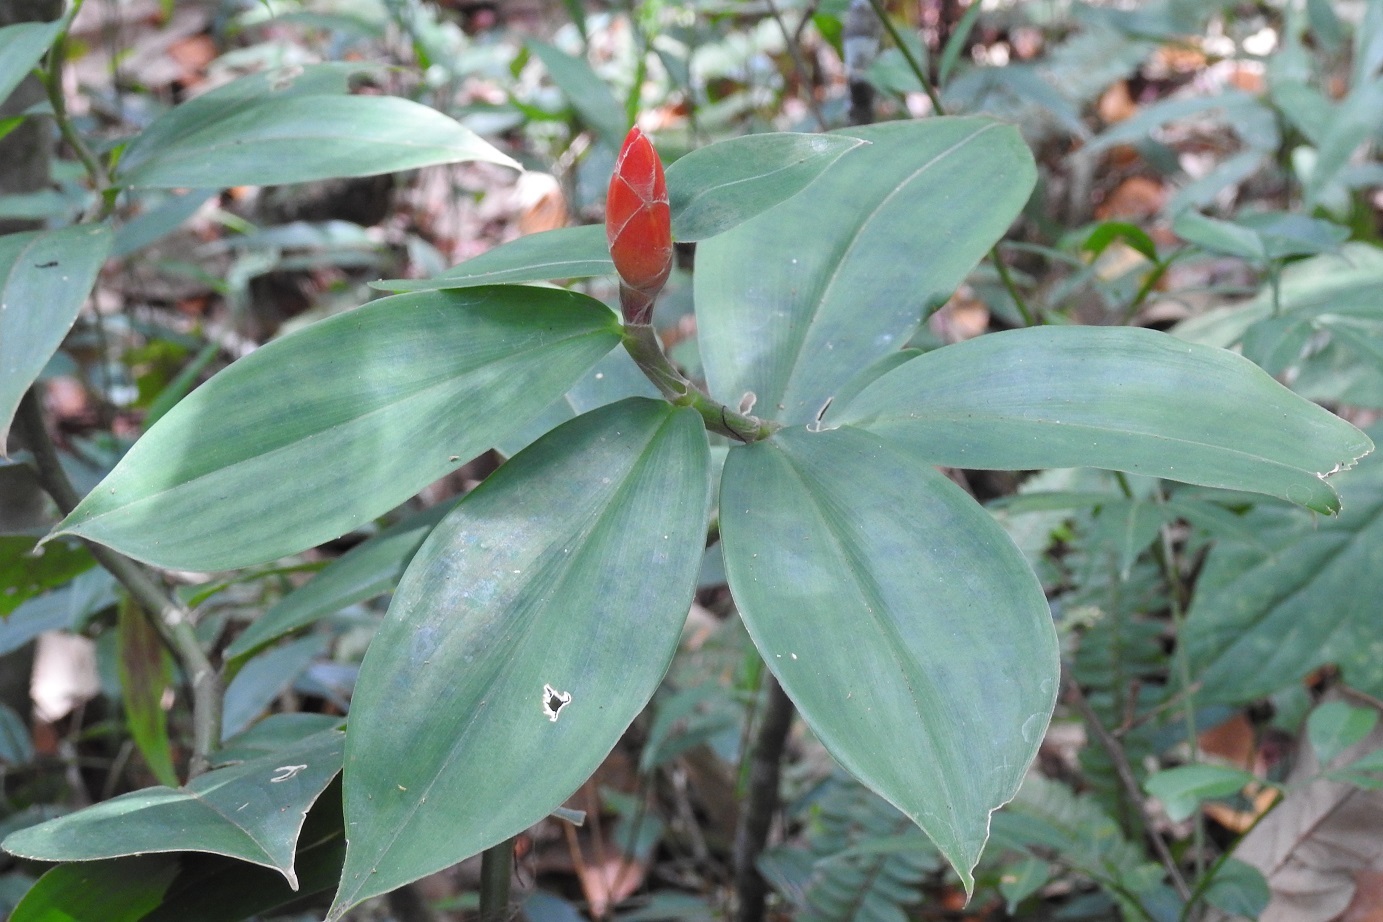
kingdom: Plantae
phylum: Tracheophyta
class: Liliopsida
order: Zingiberales
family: Costaceae
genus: Costus
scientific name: Costus pulverulentus
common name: Spiral ginger
